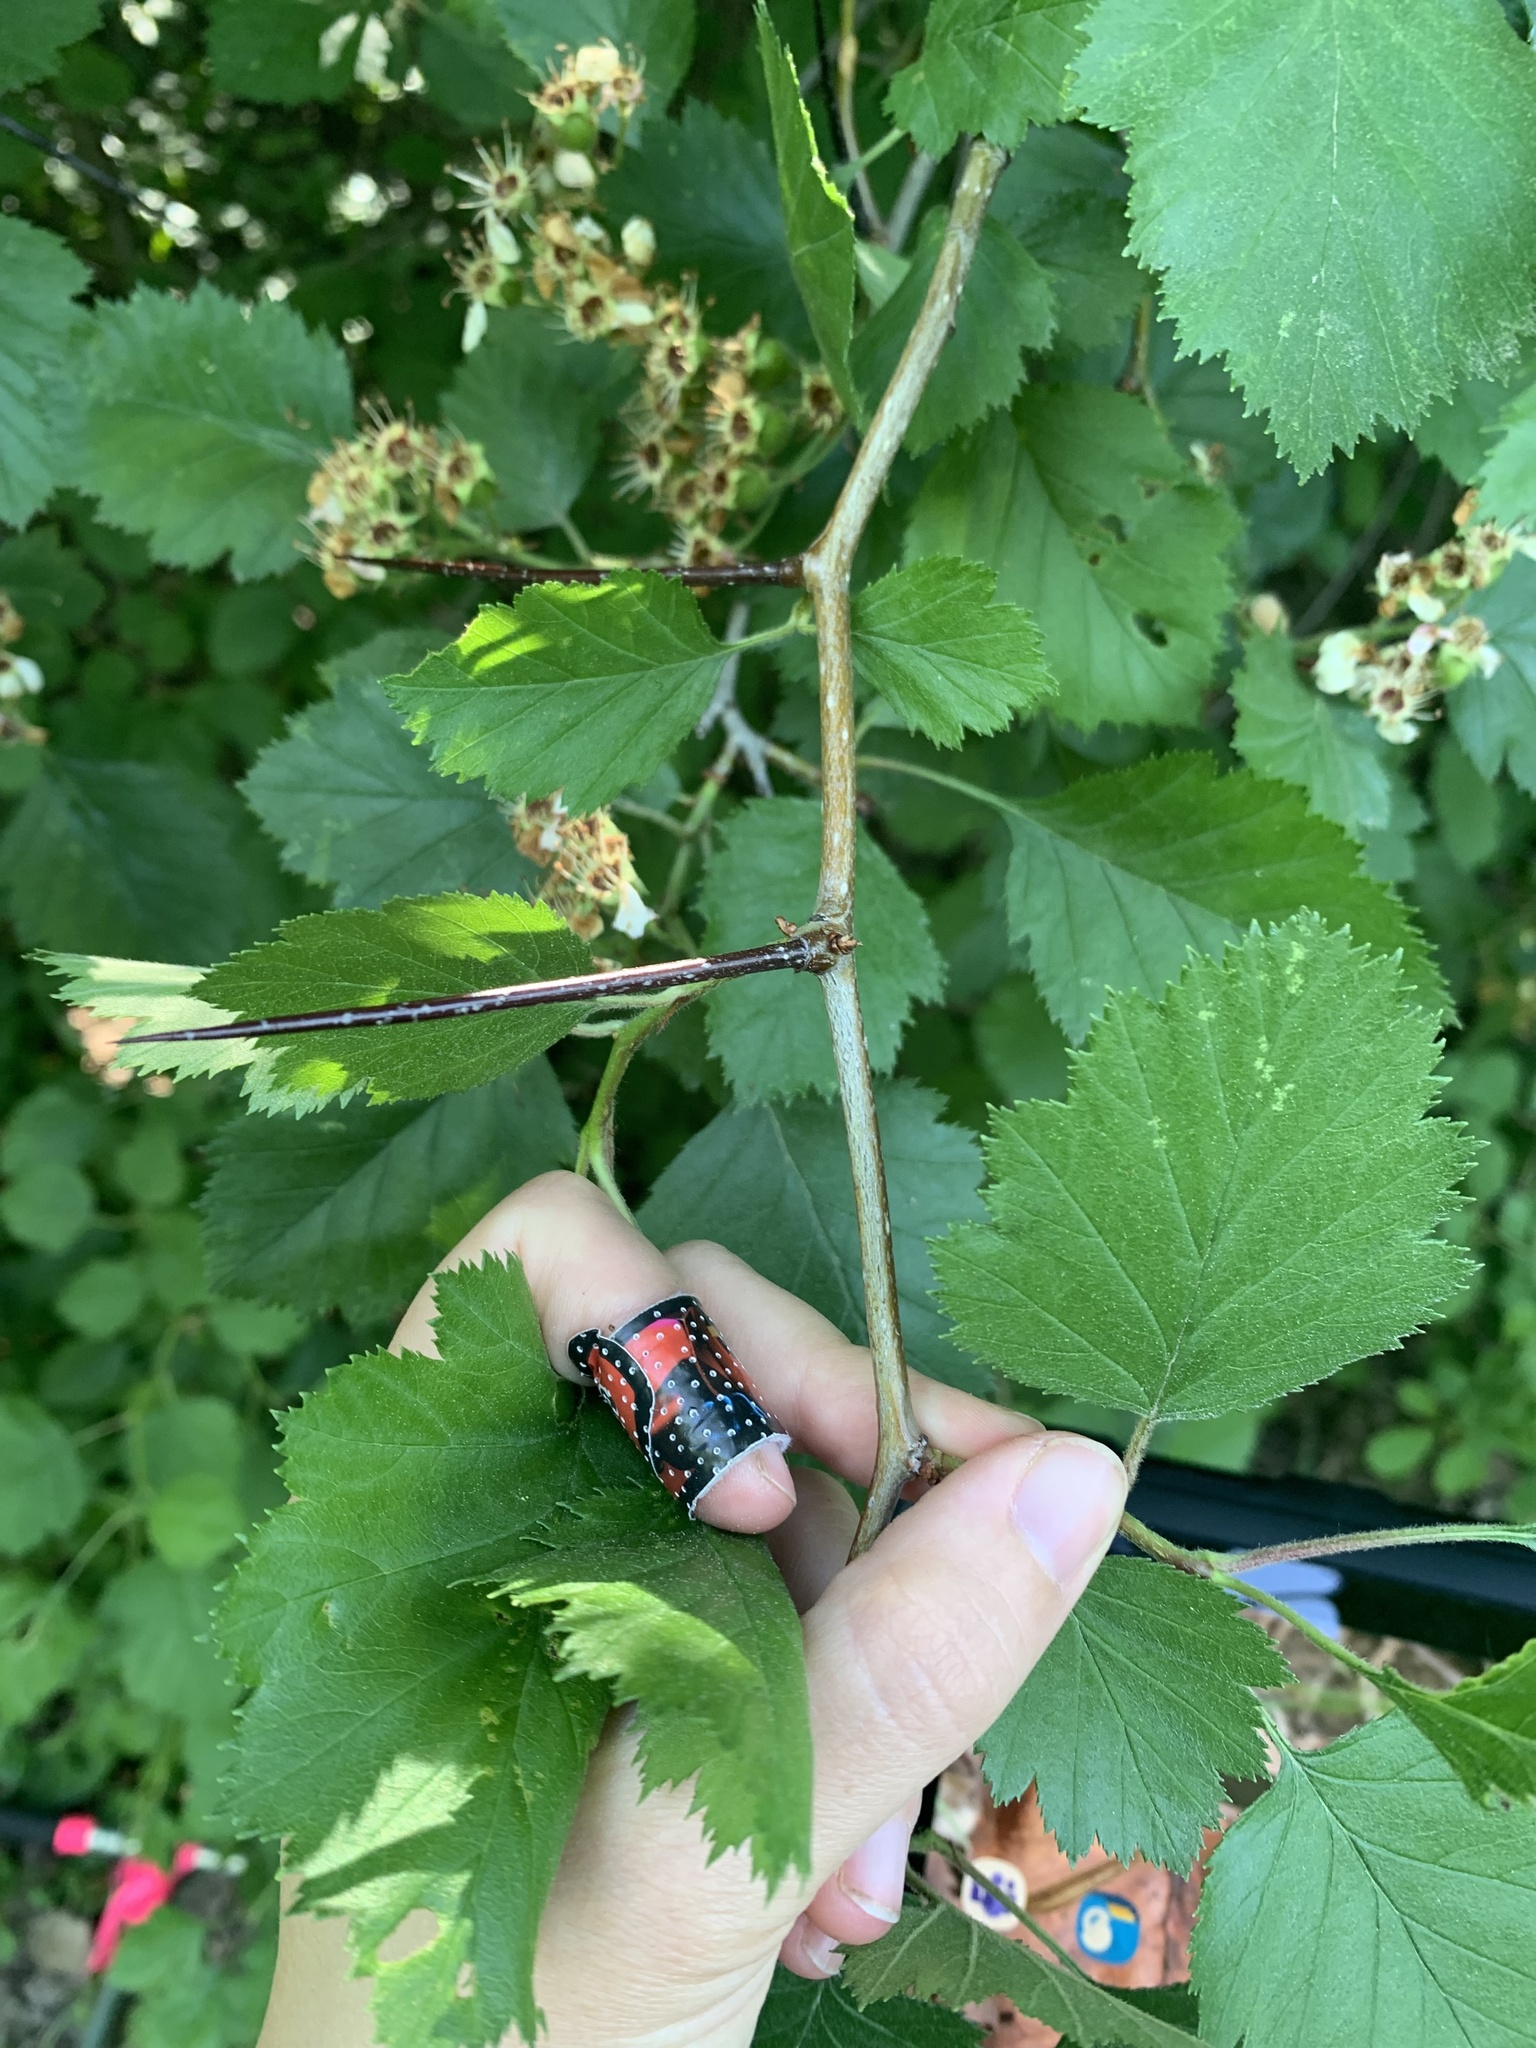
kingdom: Plantae
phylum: Tracheophyta
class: Magnoliopsida
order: Rosales
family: Rosaceae
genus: Crataegus
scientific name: Crataegus submollis
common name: Hairy cockspurthorn
